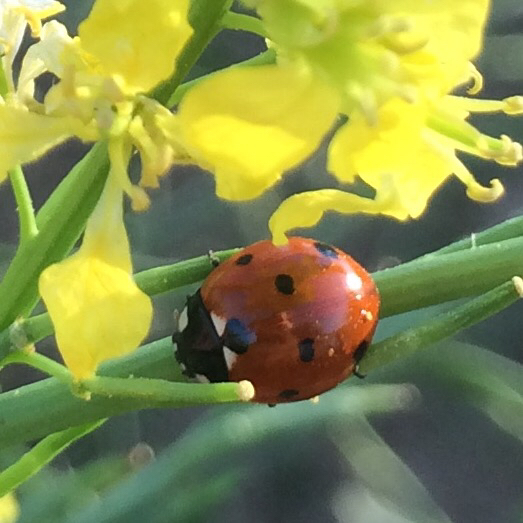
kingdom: Animalia
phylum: Arthropoda
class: Insecta
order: Coleoptera
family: Coccinellidae
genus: Coccinella
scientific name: Coccinella septempunctata
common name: Sevenspotted lady beetle
